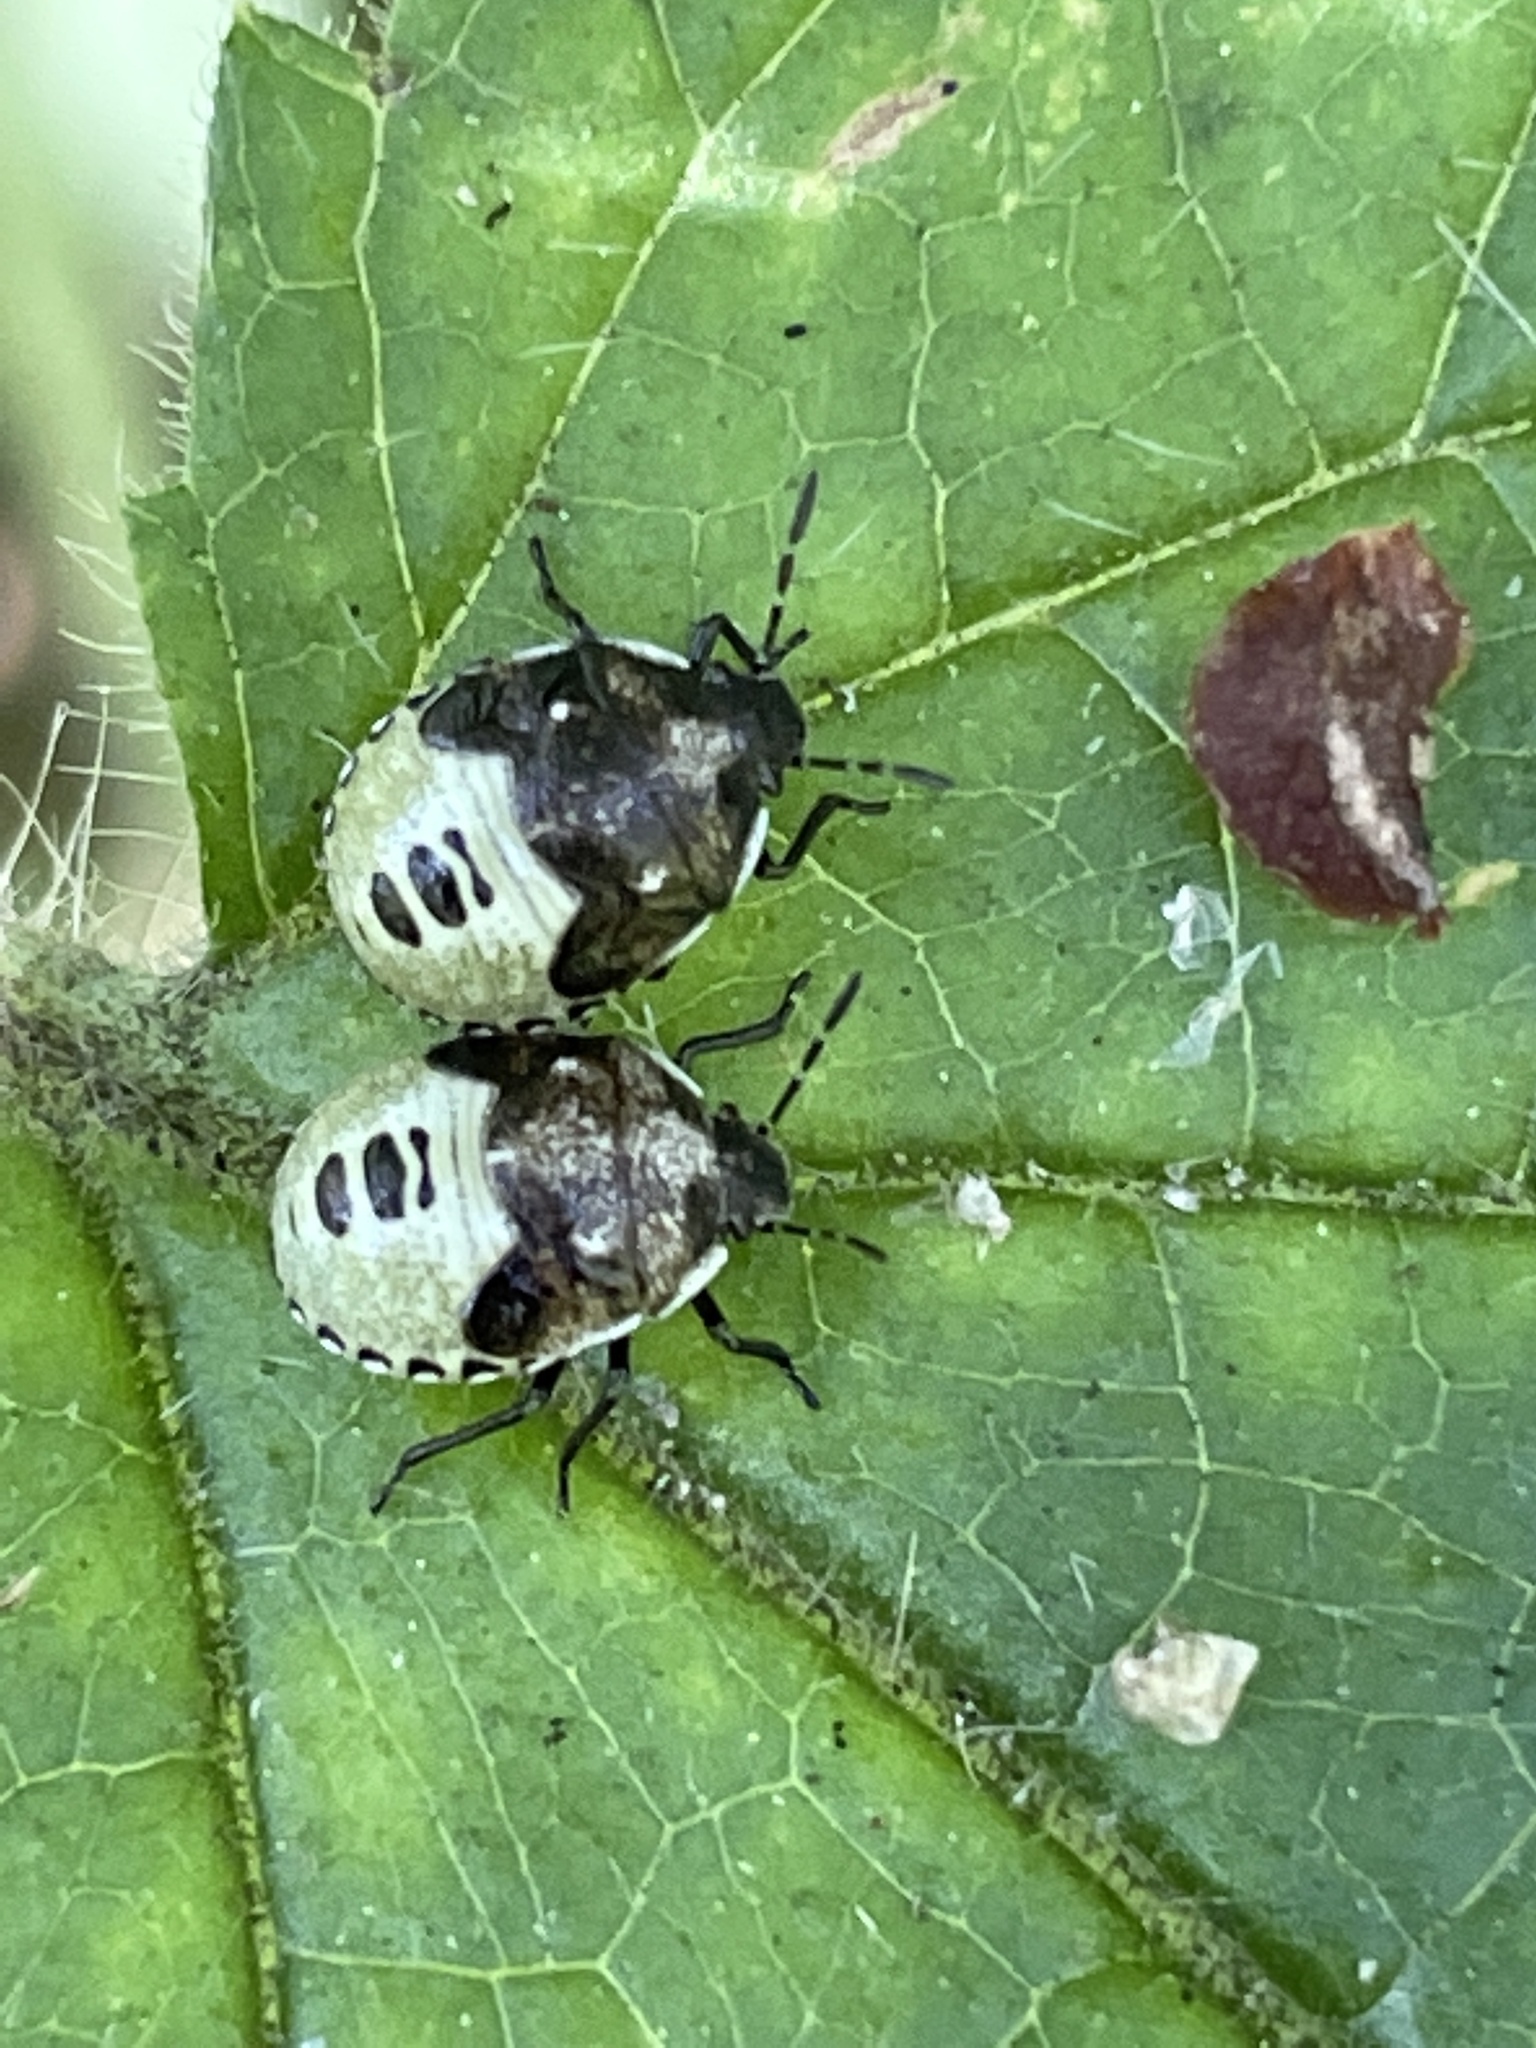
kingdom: Animalia
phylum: Arthropoda
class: Insecta
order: Hemiptera
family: Pentatomidae
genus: Eysarcoris
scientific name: Eysarcoris venustissimus
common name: Woundwort shieldbug
